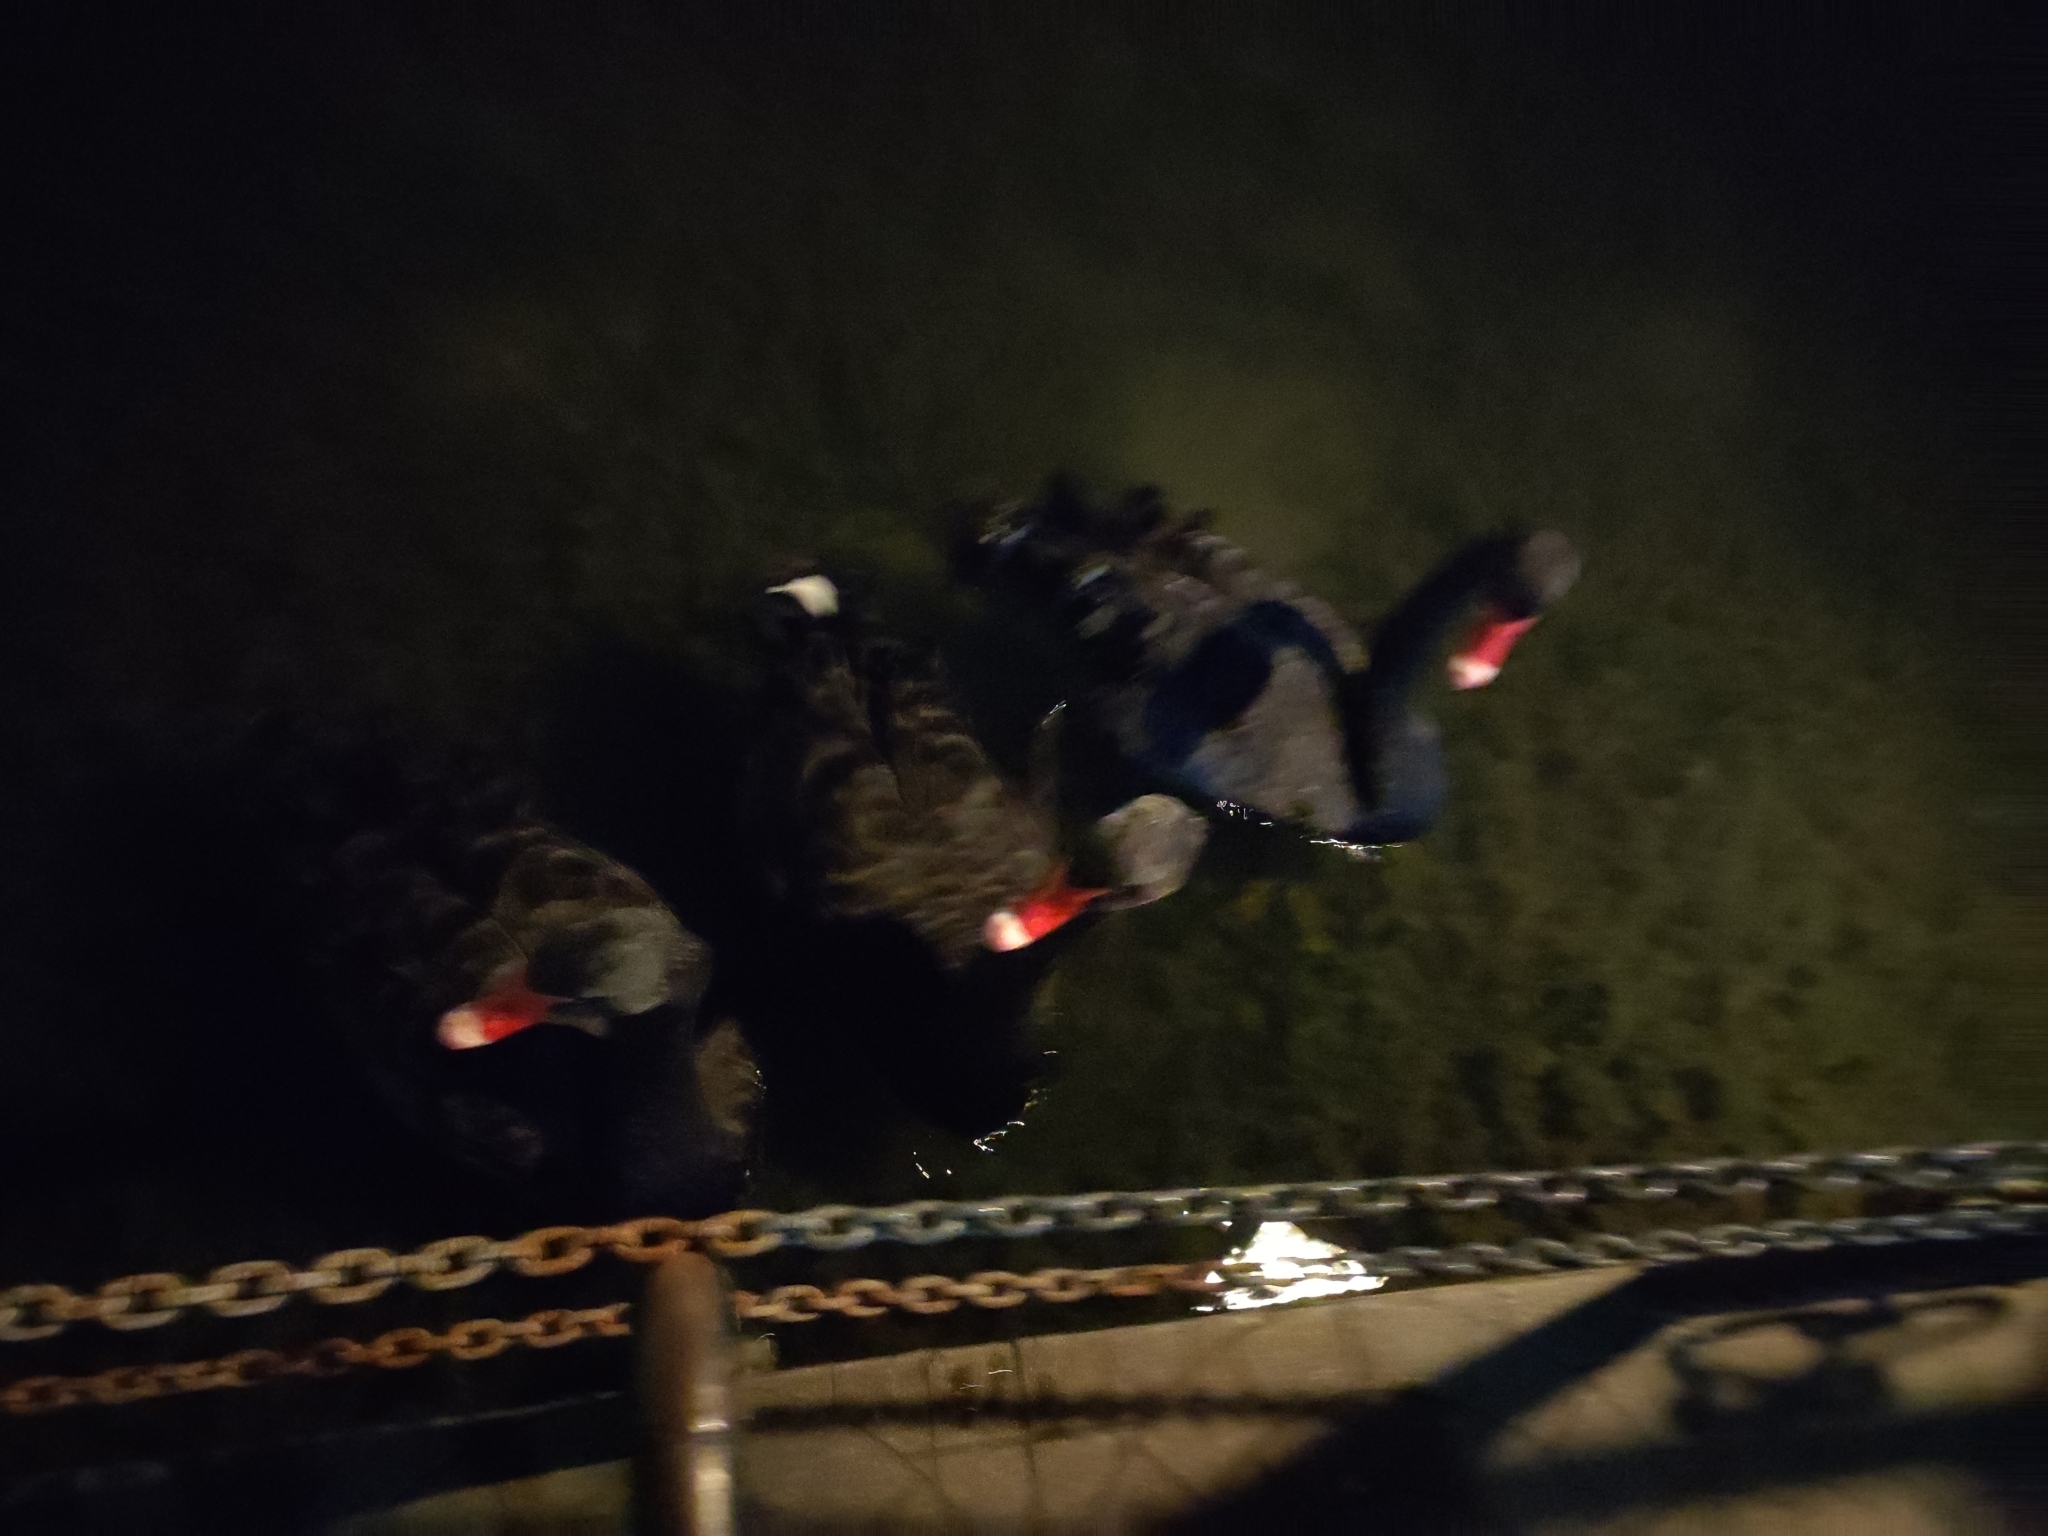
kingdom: Animalia
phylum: Chordata
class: Aves
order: Anseriformes
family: Anatidae
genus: Cygnus
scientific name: Cygnus atratus
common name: Black swan
